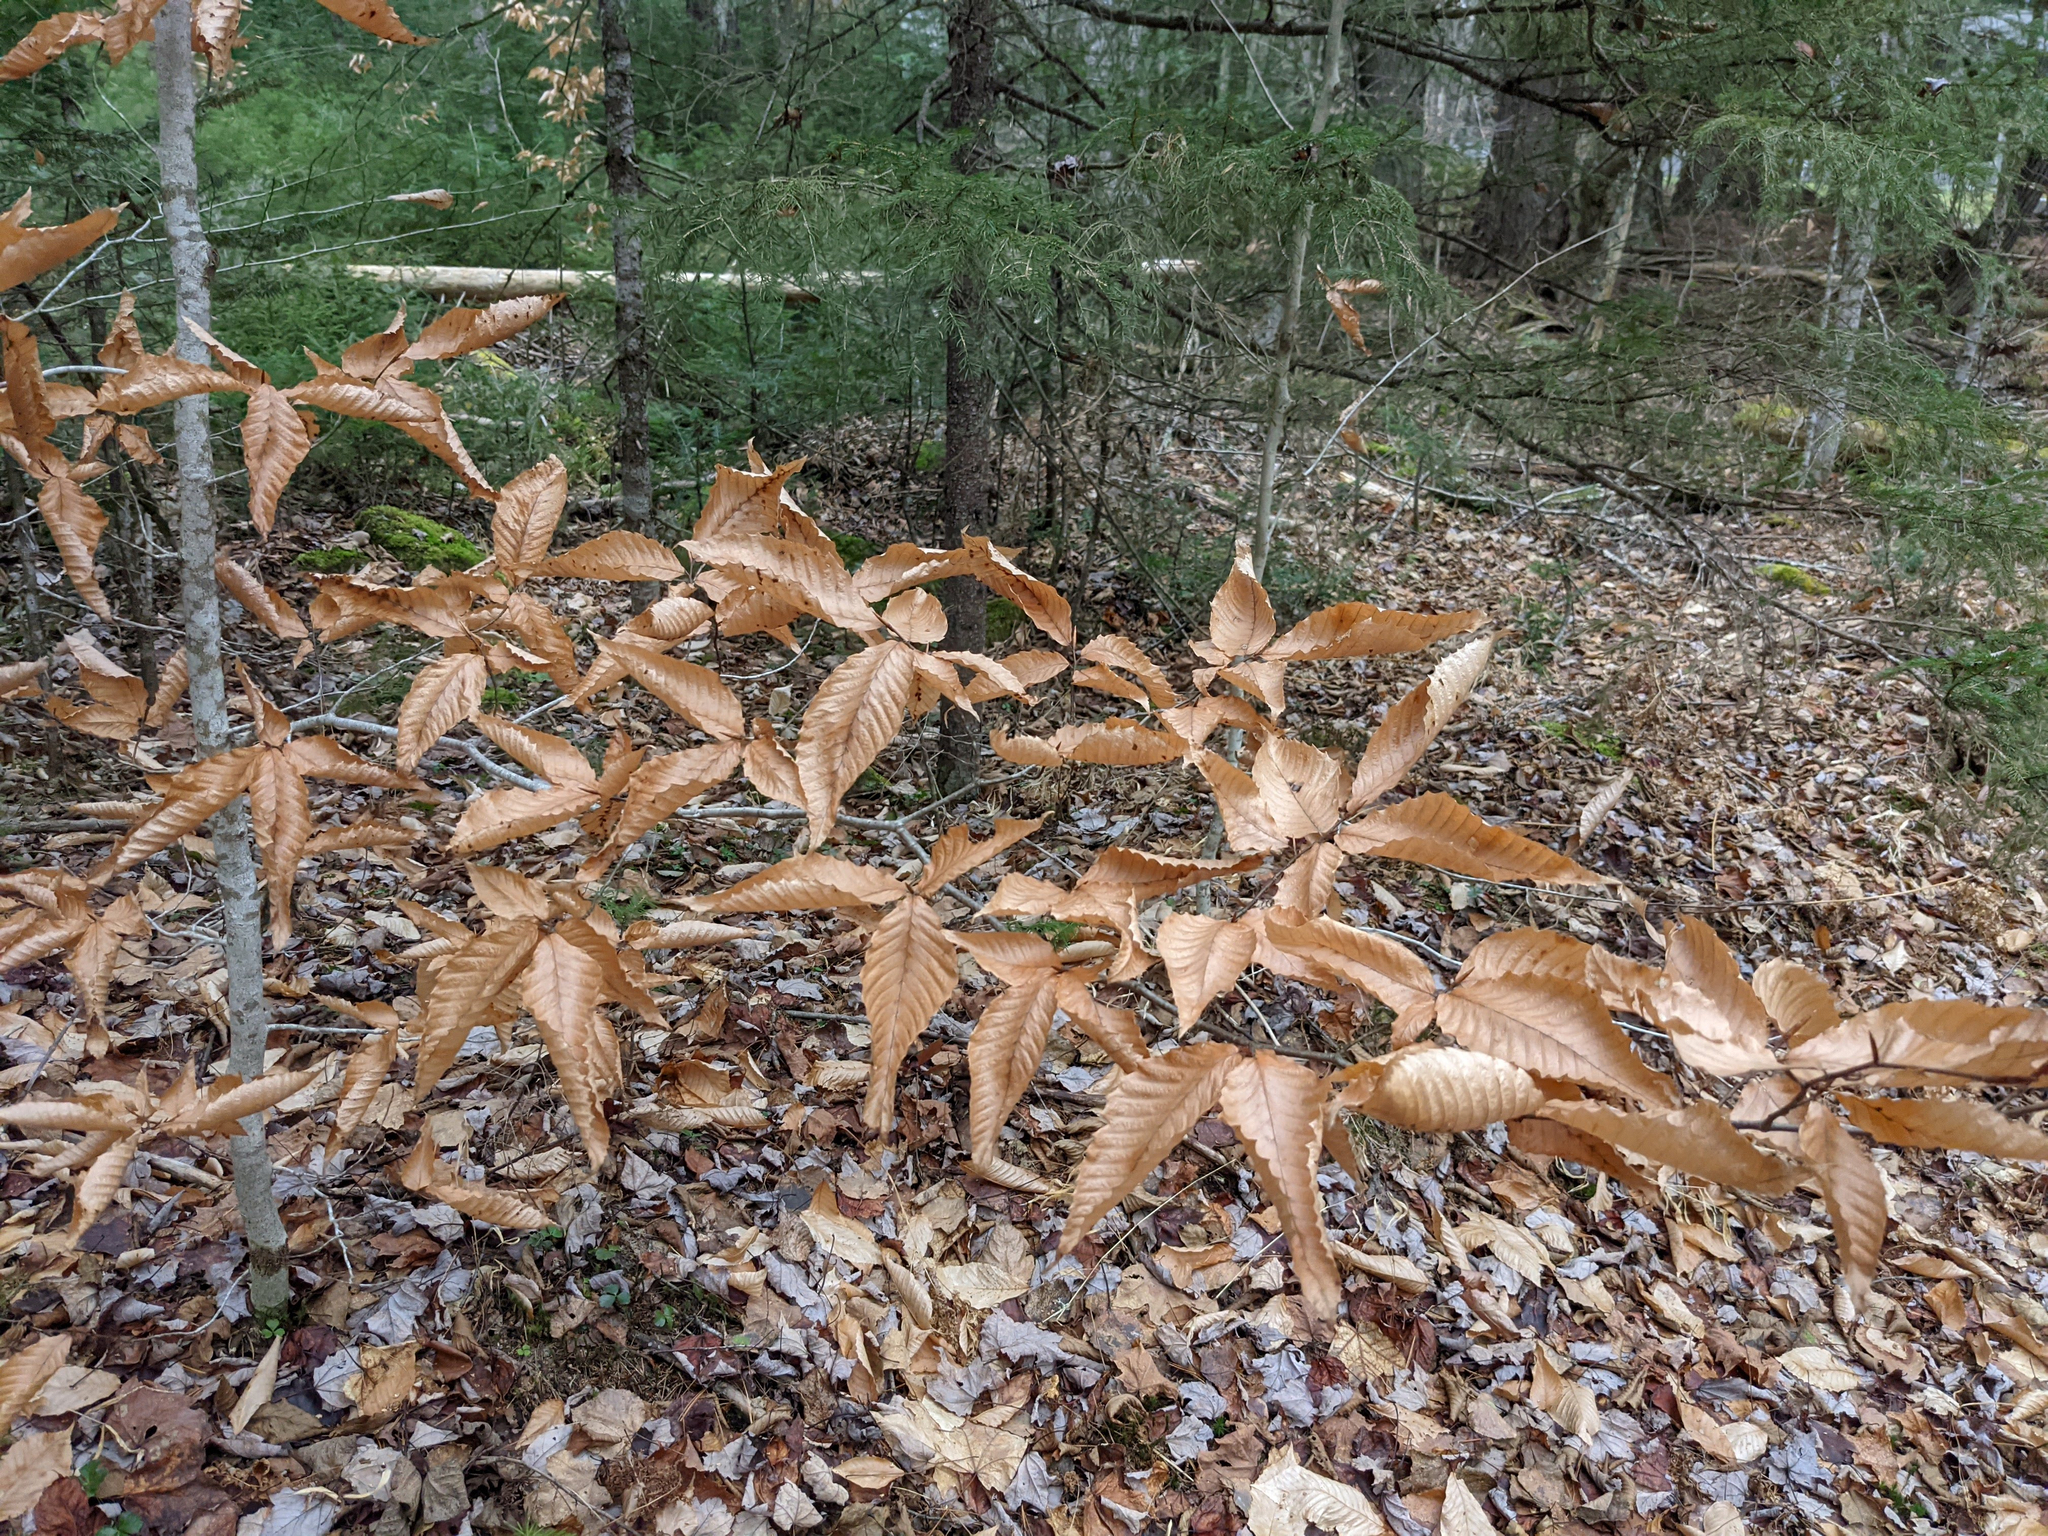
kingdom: Plantae
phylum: Tracheophyta
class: Magnoliopsida
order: Fagales
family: Fagaceae
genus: Fagus
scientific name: Fagus grandifolia
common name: American beech
